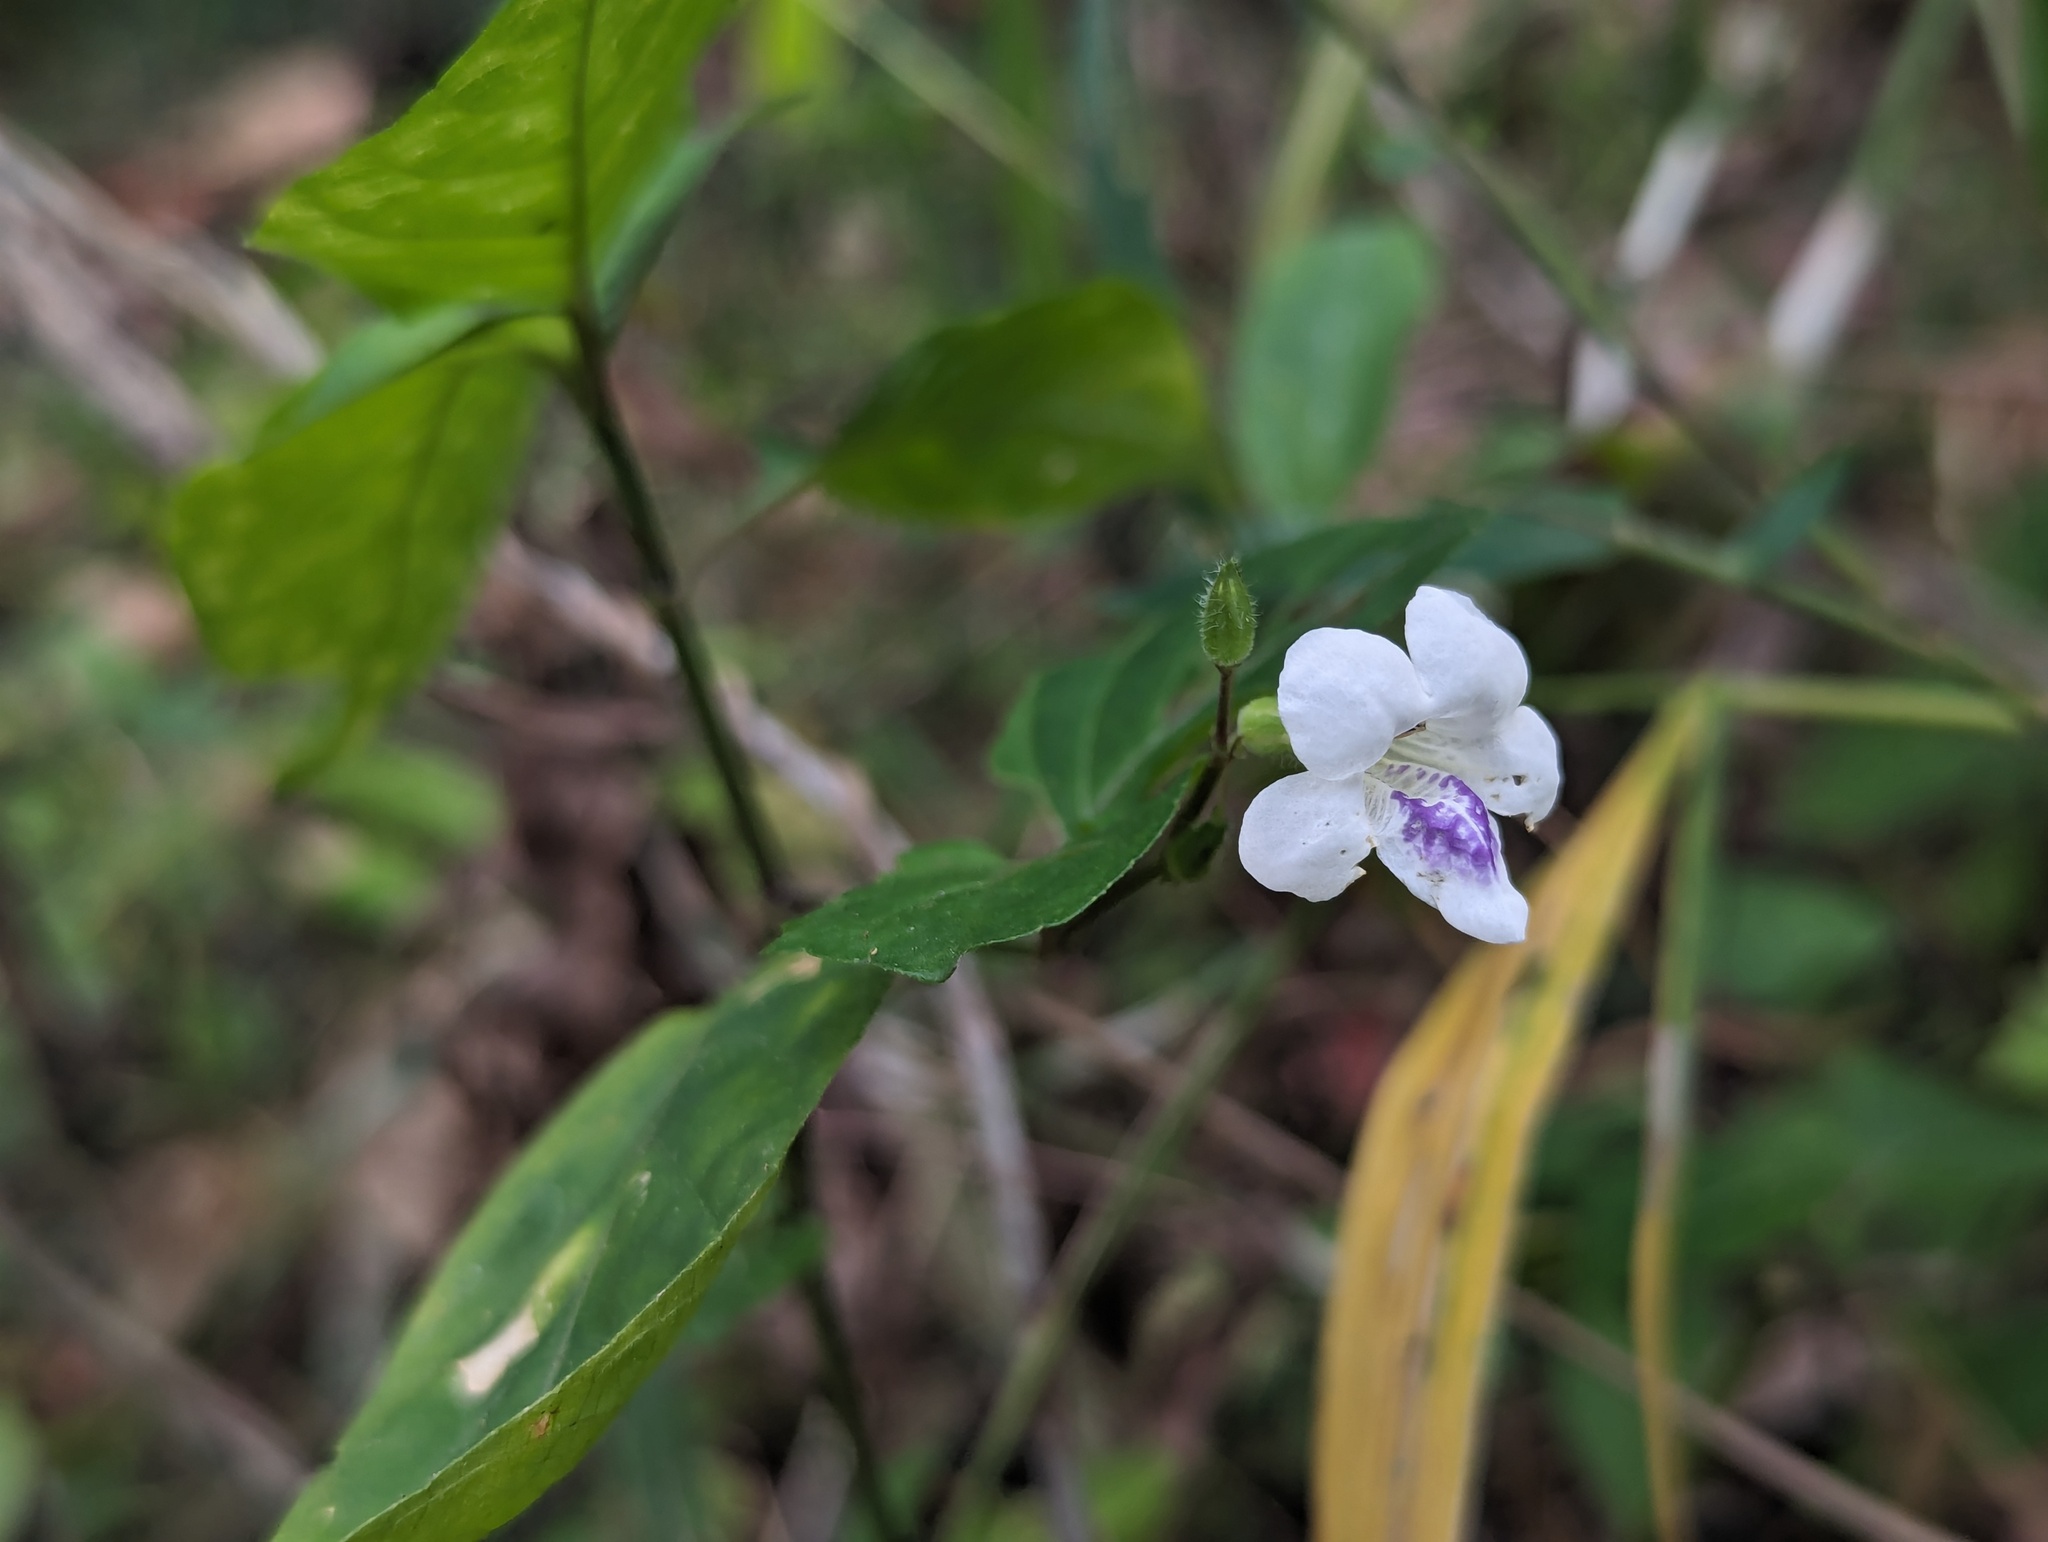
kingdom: Plantae
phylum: Tracheophyta
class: Magnoliopsida
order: Lamiales
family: Acanthaceae
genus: Asystasia
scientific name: Asystasia intrusa
